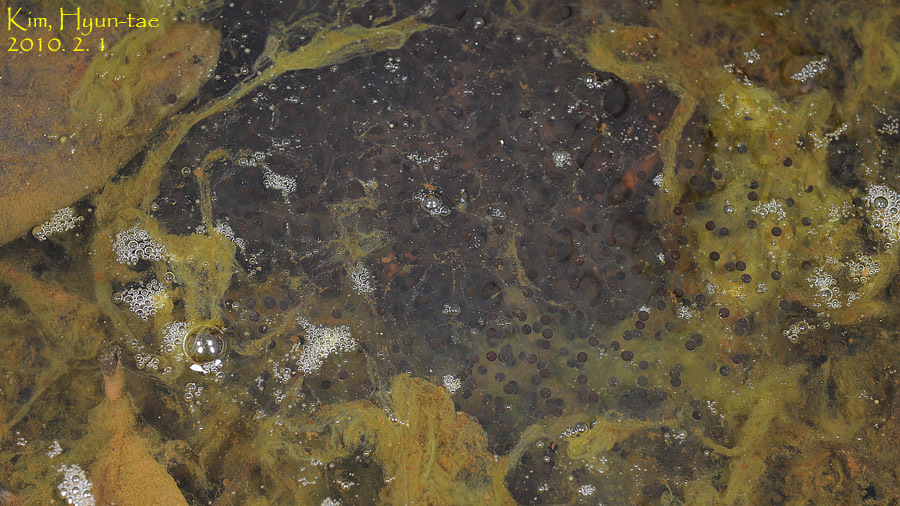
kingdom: Animalia
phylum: Chordata
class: Amphibia
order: Anura
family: Ranidae
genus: Rana
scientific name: Rana uenoi
